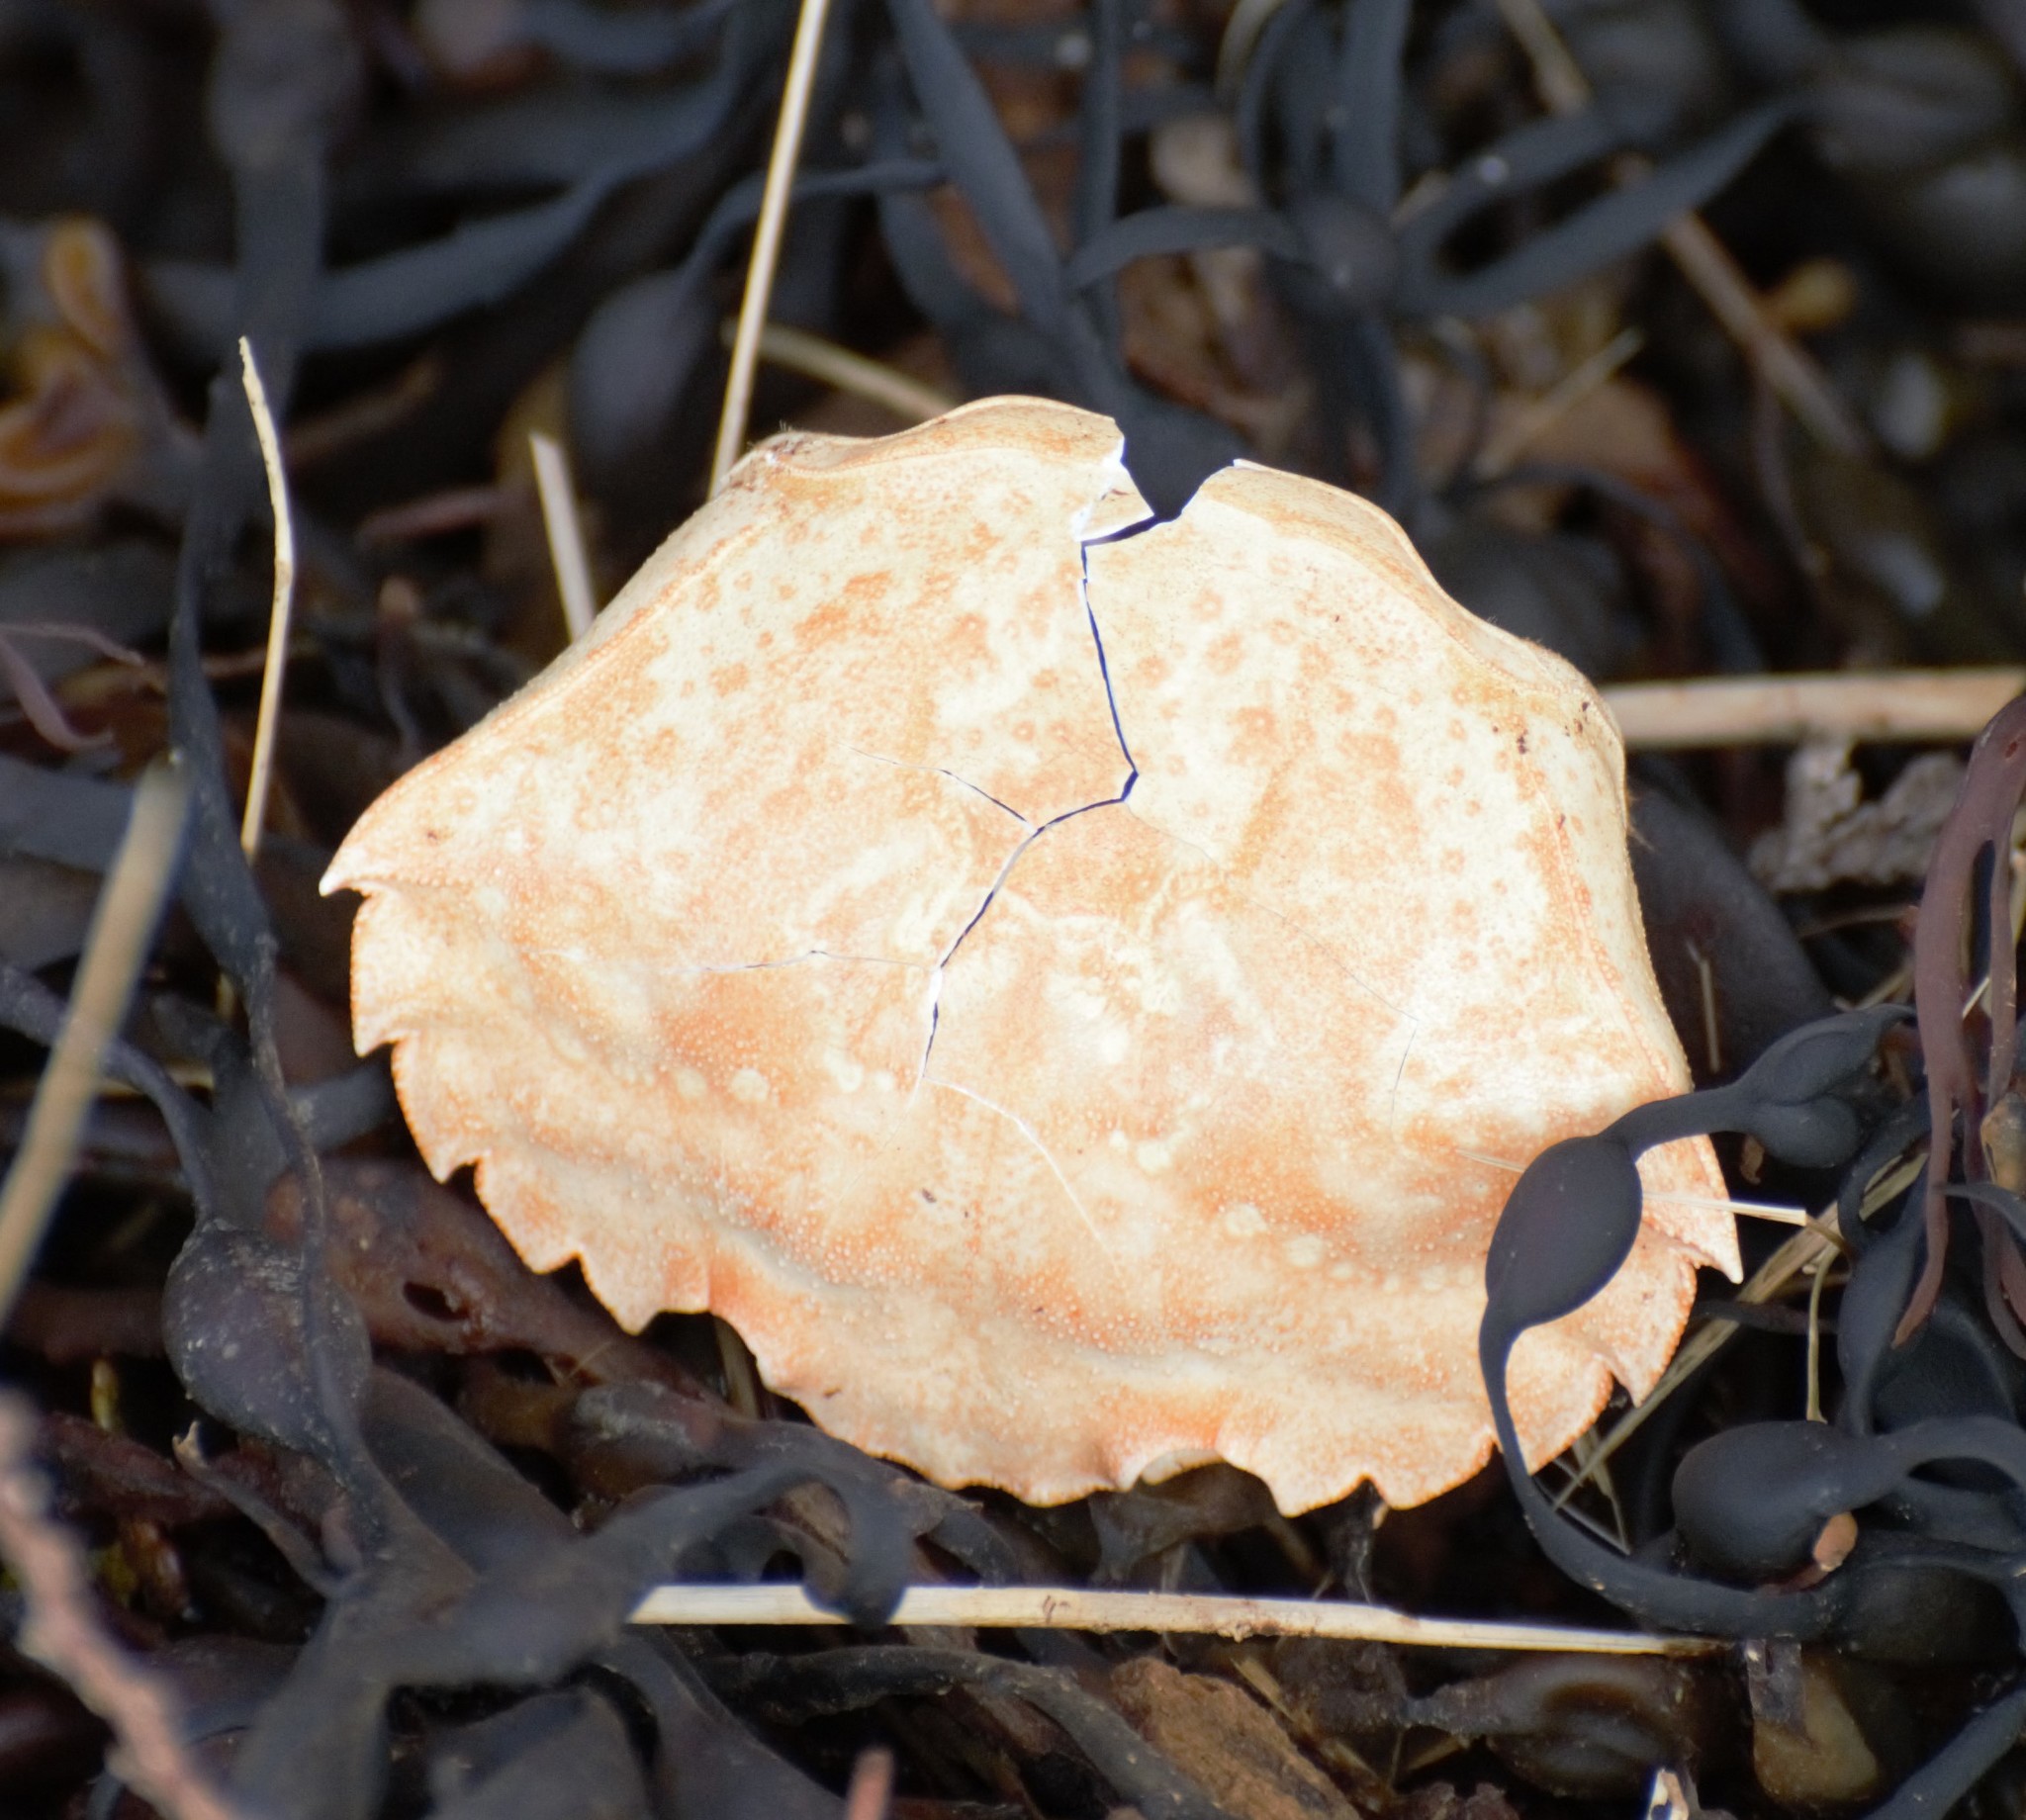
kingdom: Animalia
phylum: Arthropoda
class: Malacostraca
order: Decapoda
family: Carcinidae
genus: Carcinus
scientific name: Carcinus maenas
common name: European green crab
